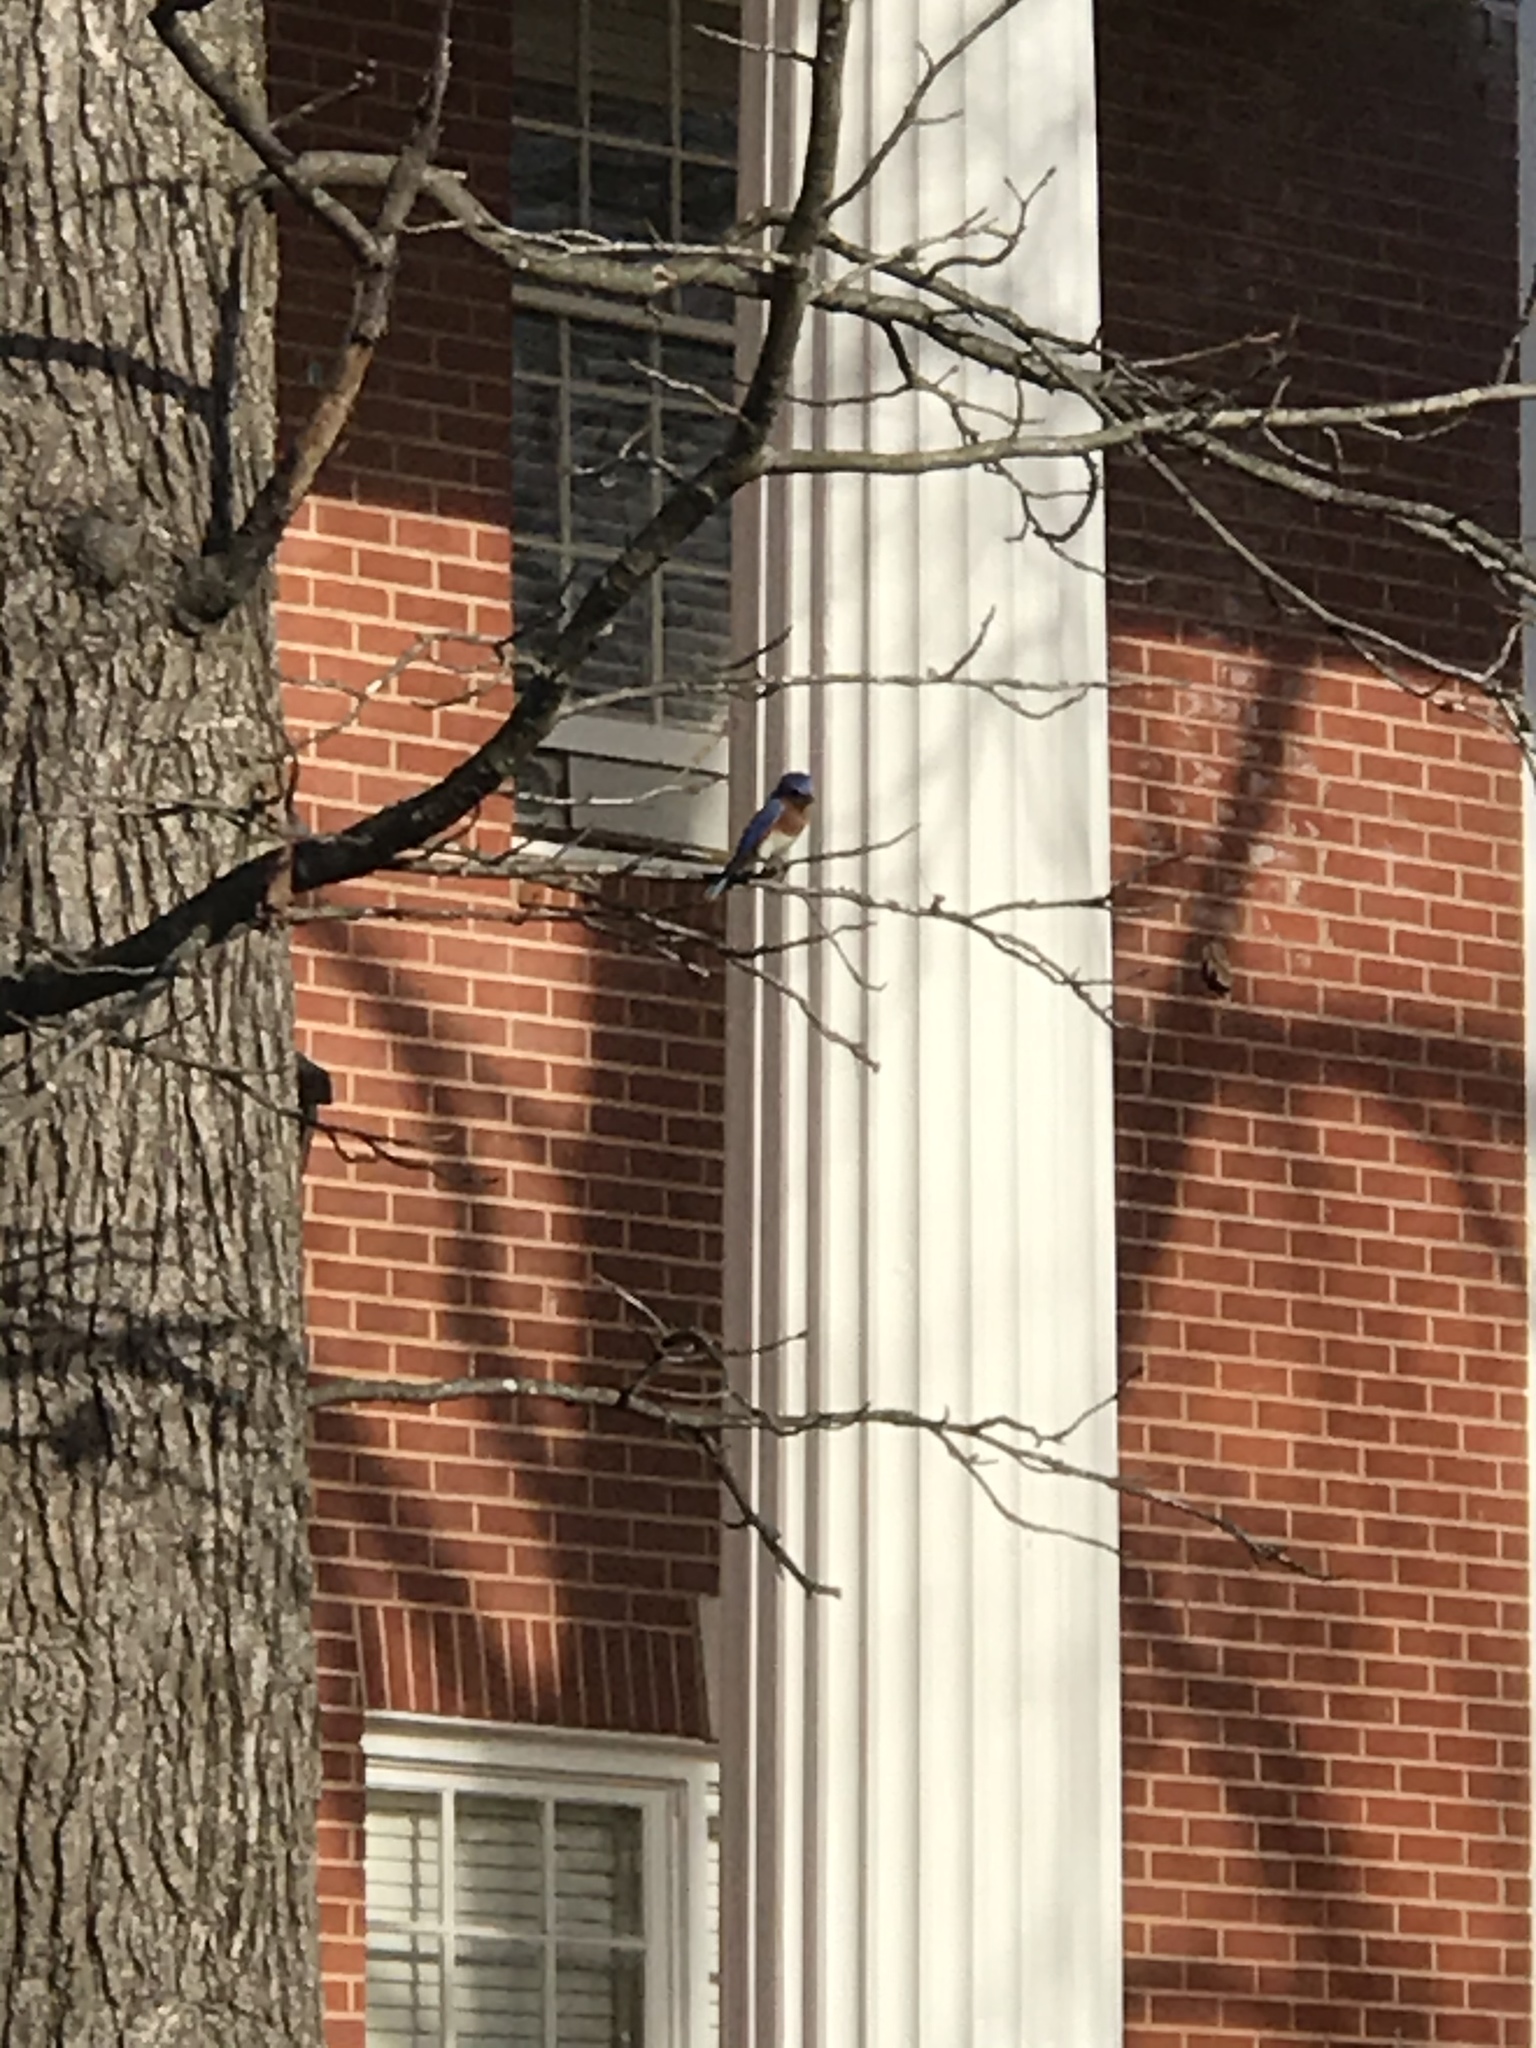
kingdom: Animalia
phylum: Chordata
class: Aves
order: Passeriformes
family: Turdidae
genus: Sialia
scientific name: Sialia sialis
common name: Eastern bluebird
